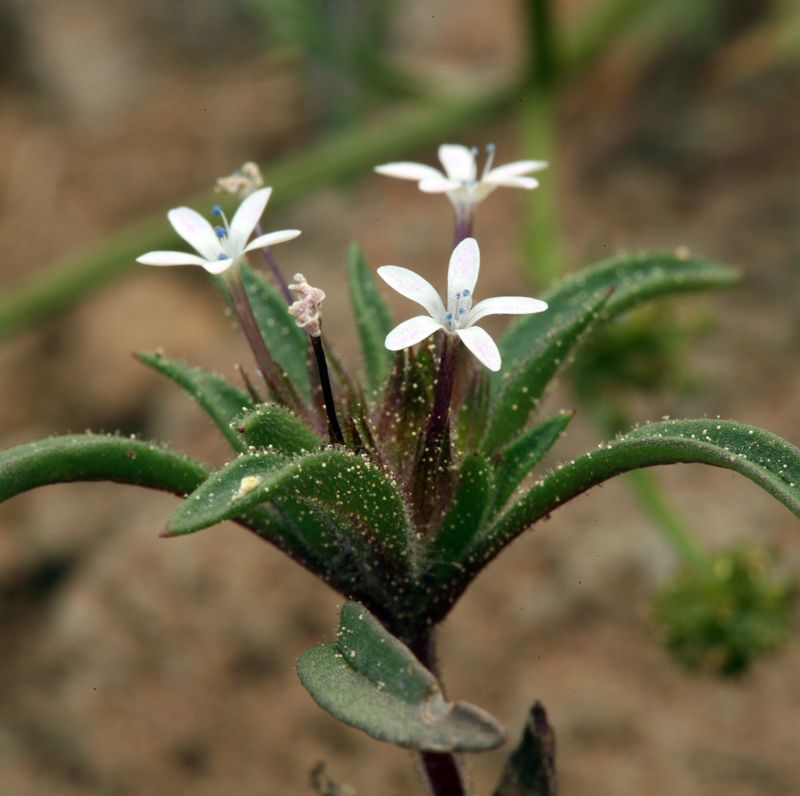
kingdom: Plantae
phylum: Tracheophyta
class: Magnoliopsida
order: Ericales
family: Polemoniaceae
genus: Collomia
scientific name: Collomia tinctoria
